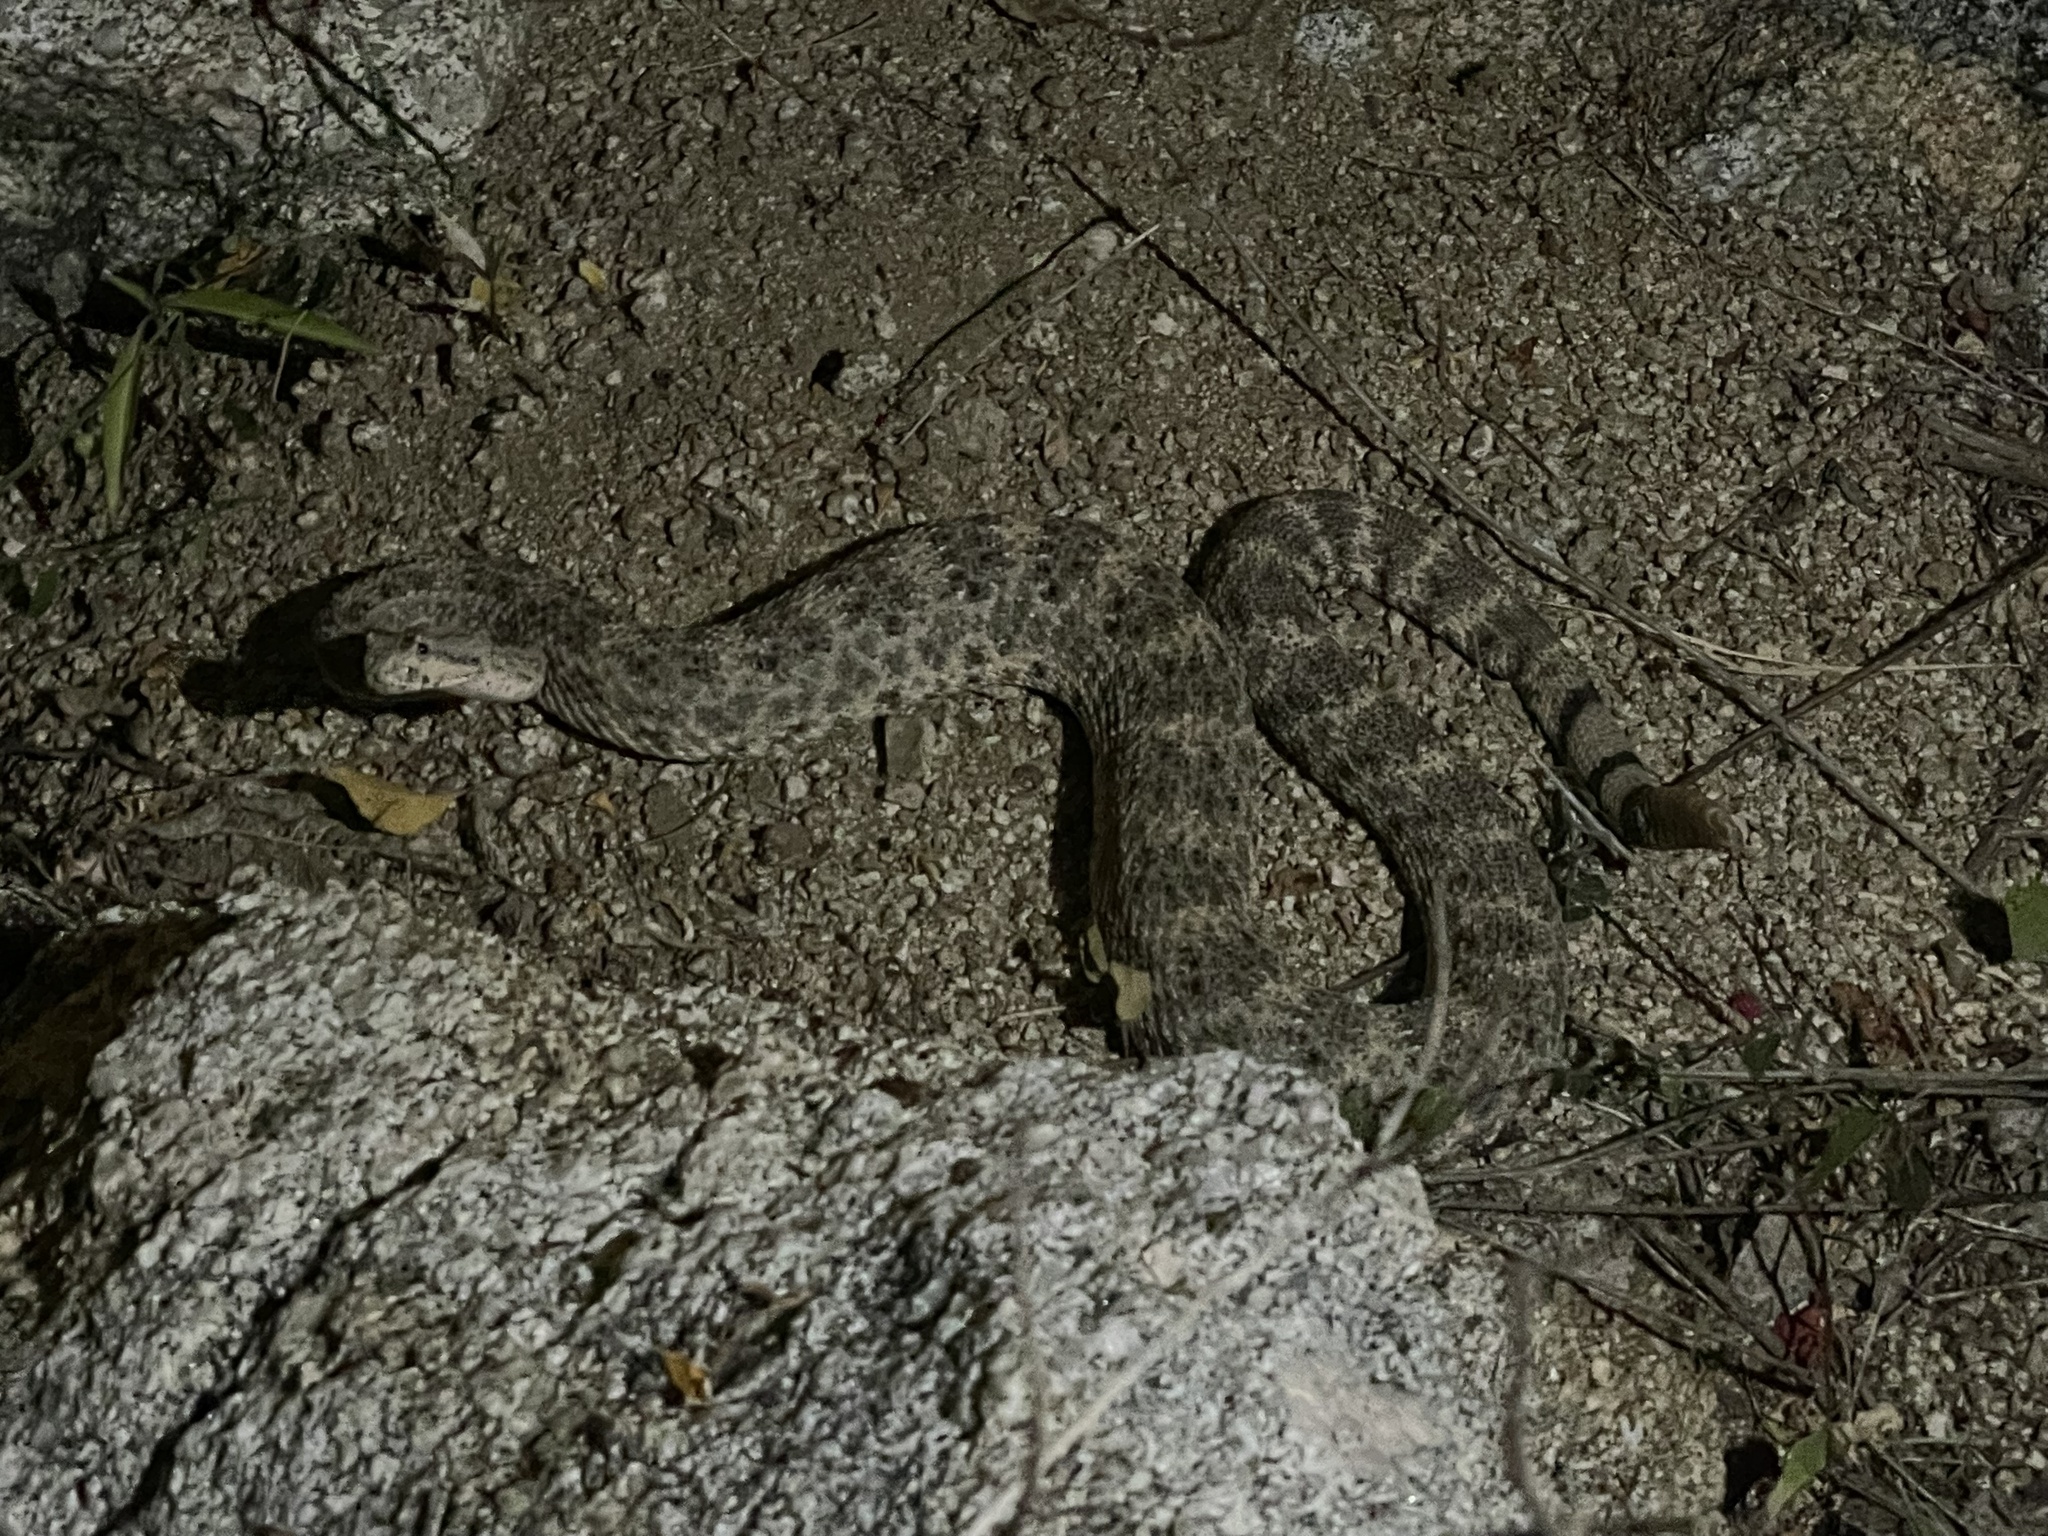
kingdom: Animalia
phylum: Chordata
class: Squamata
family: Viperidae
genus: Crotalus
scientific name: Crotalus mitchellii
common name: Speckled rattlesnake
